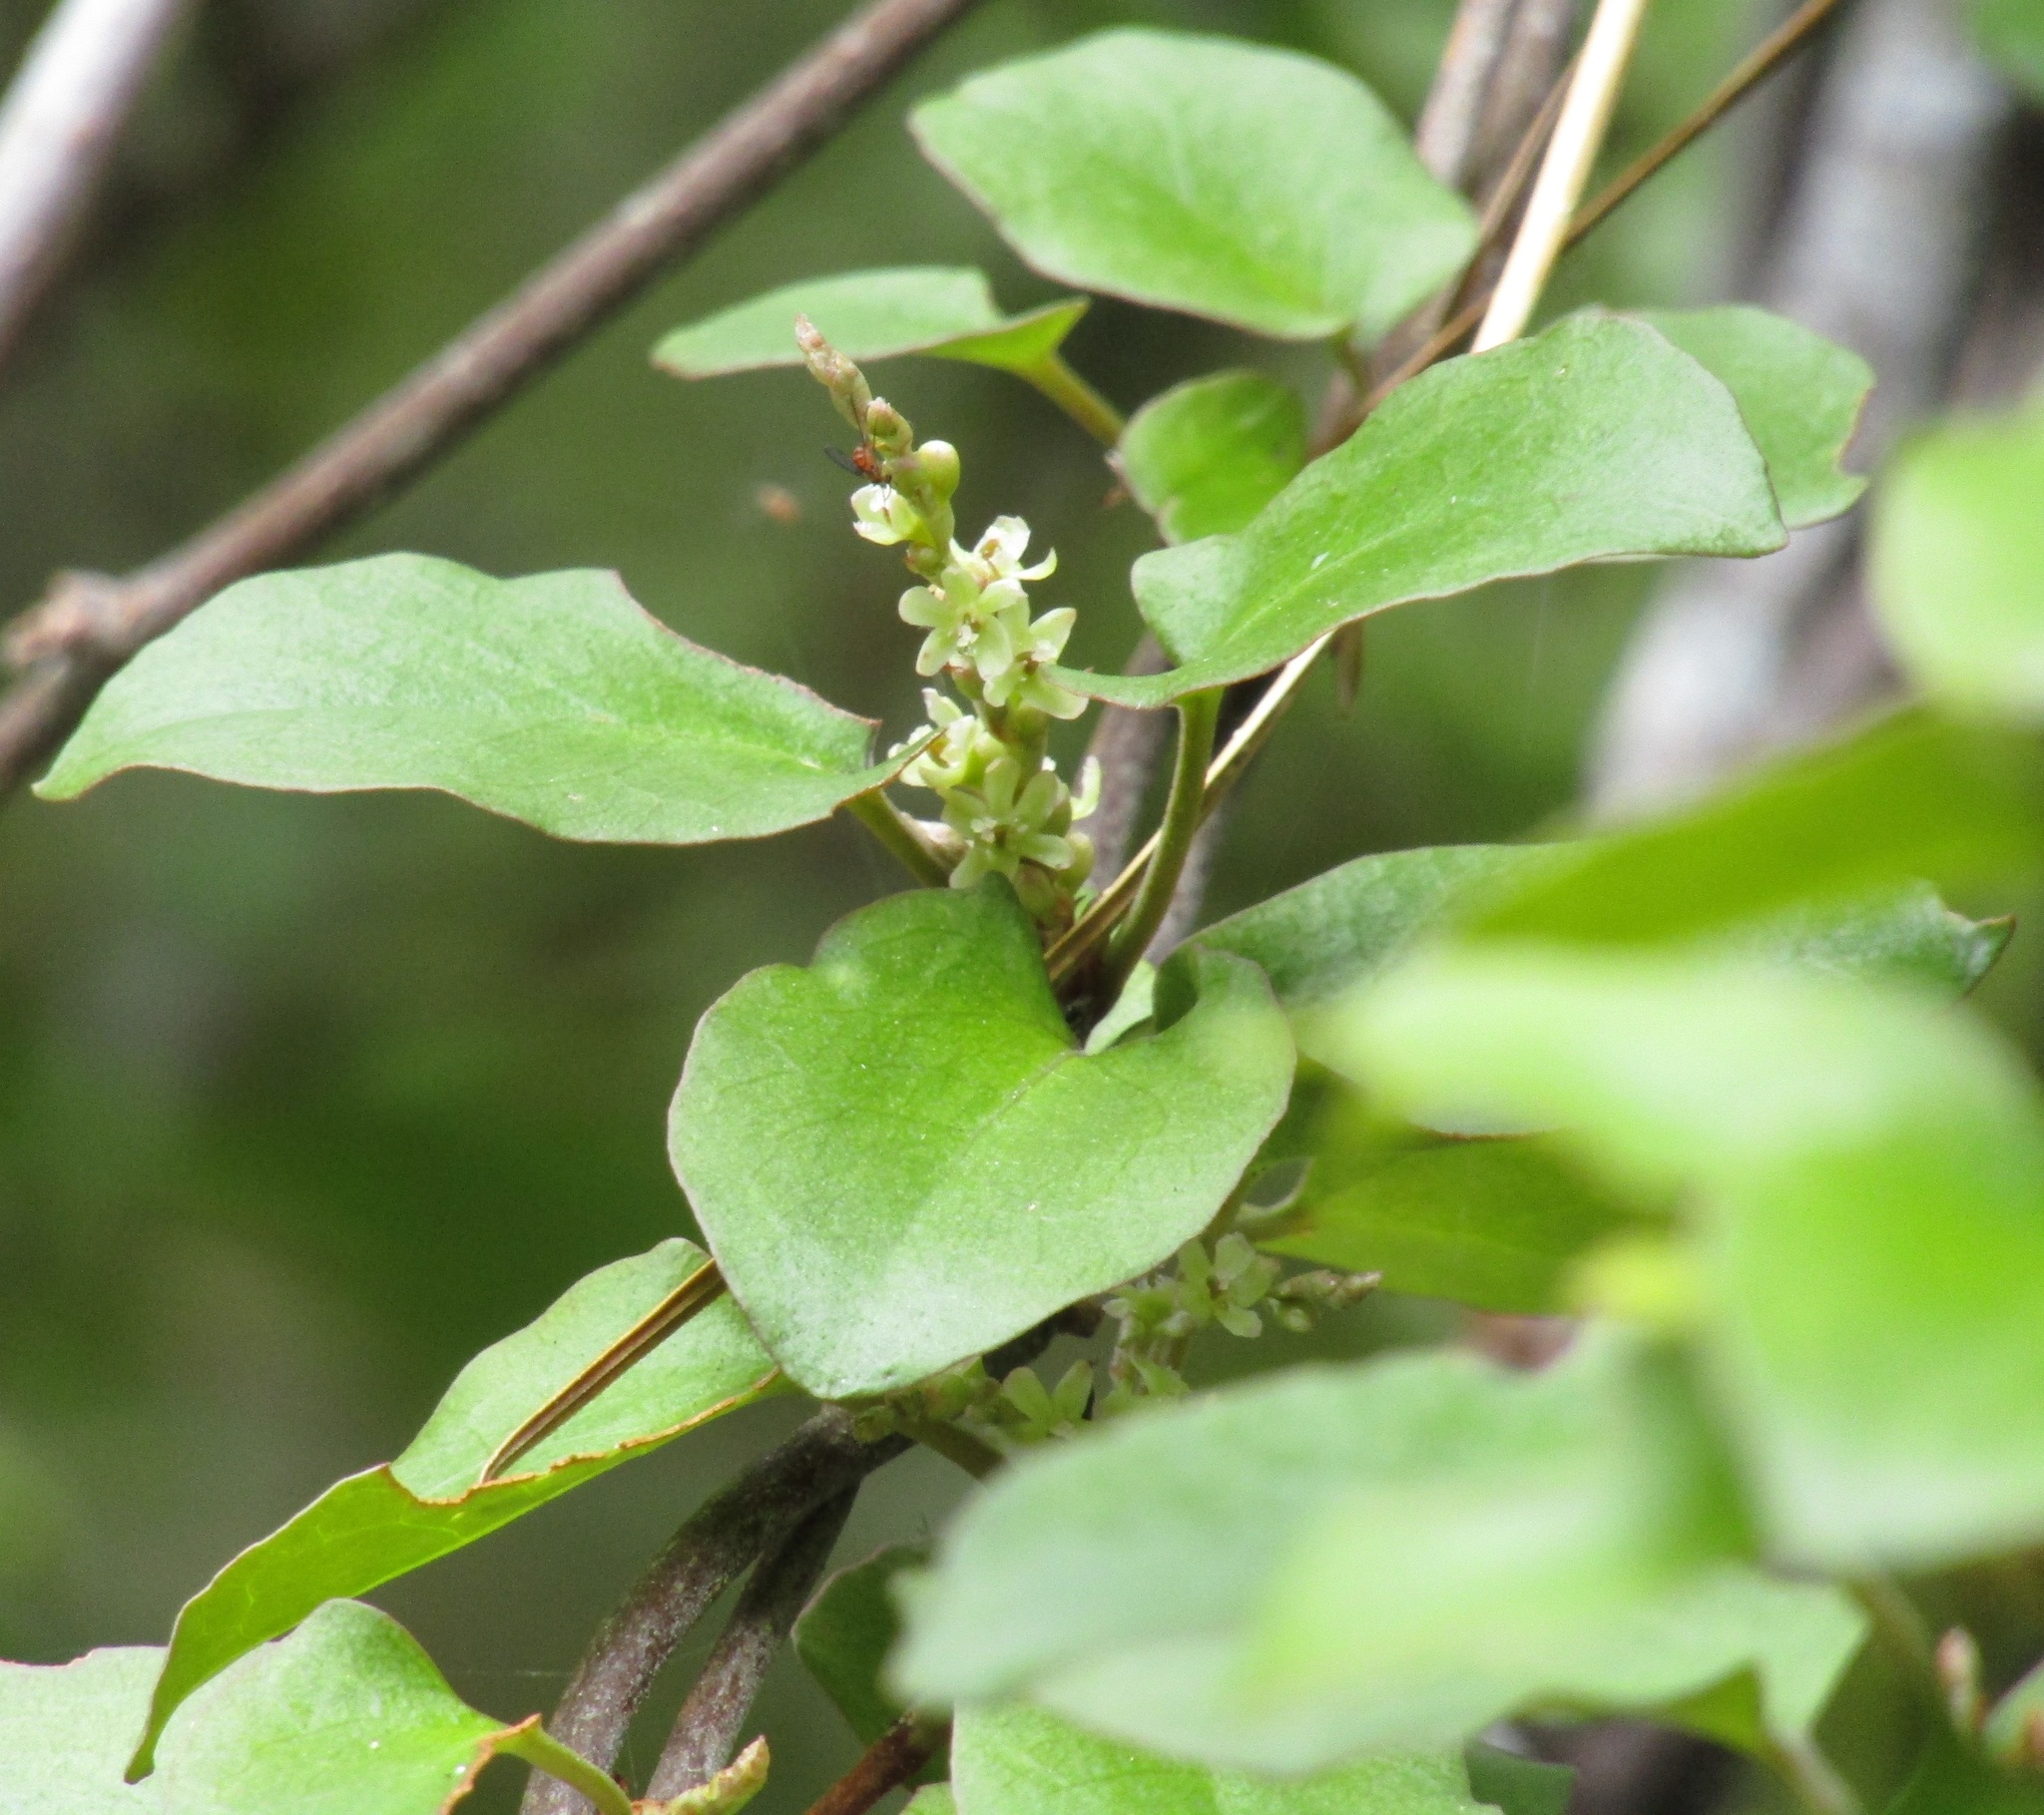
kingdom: Plantae
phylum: Tracheophyta
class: Magnoliopsida
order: Caryophyllales
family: Polygonaceae
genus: Muehlenbeckia
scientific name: Muehlenbeckia australis
